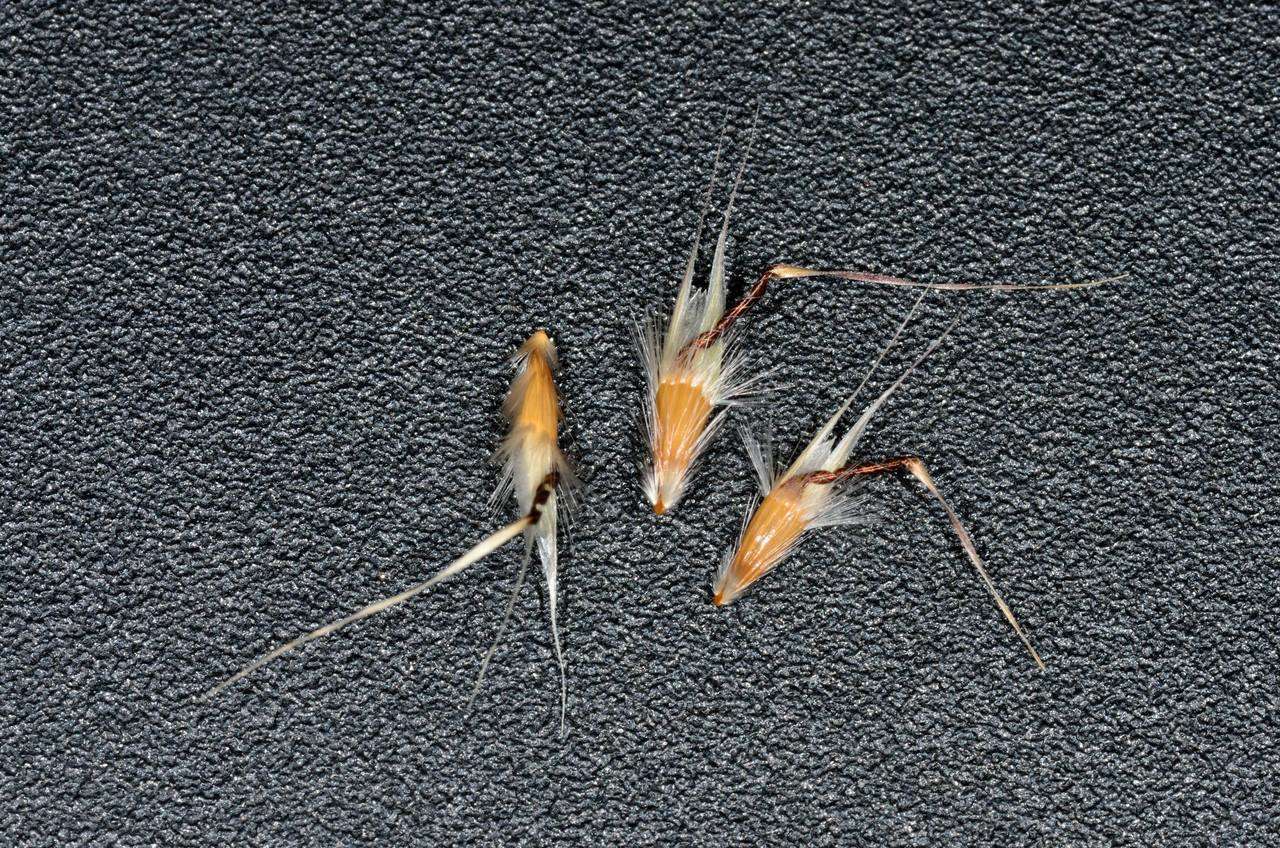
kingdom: Plantae
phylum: Tracheophyta
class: Liliopsida
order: Poales
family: Poaceae
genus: Rytidosperma
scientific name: Rytidosperma duttonianum
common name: Brown-black wallaby grass
